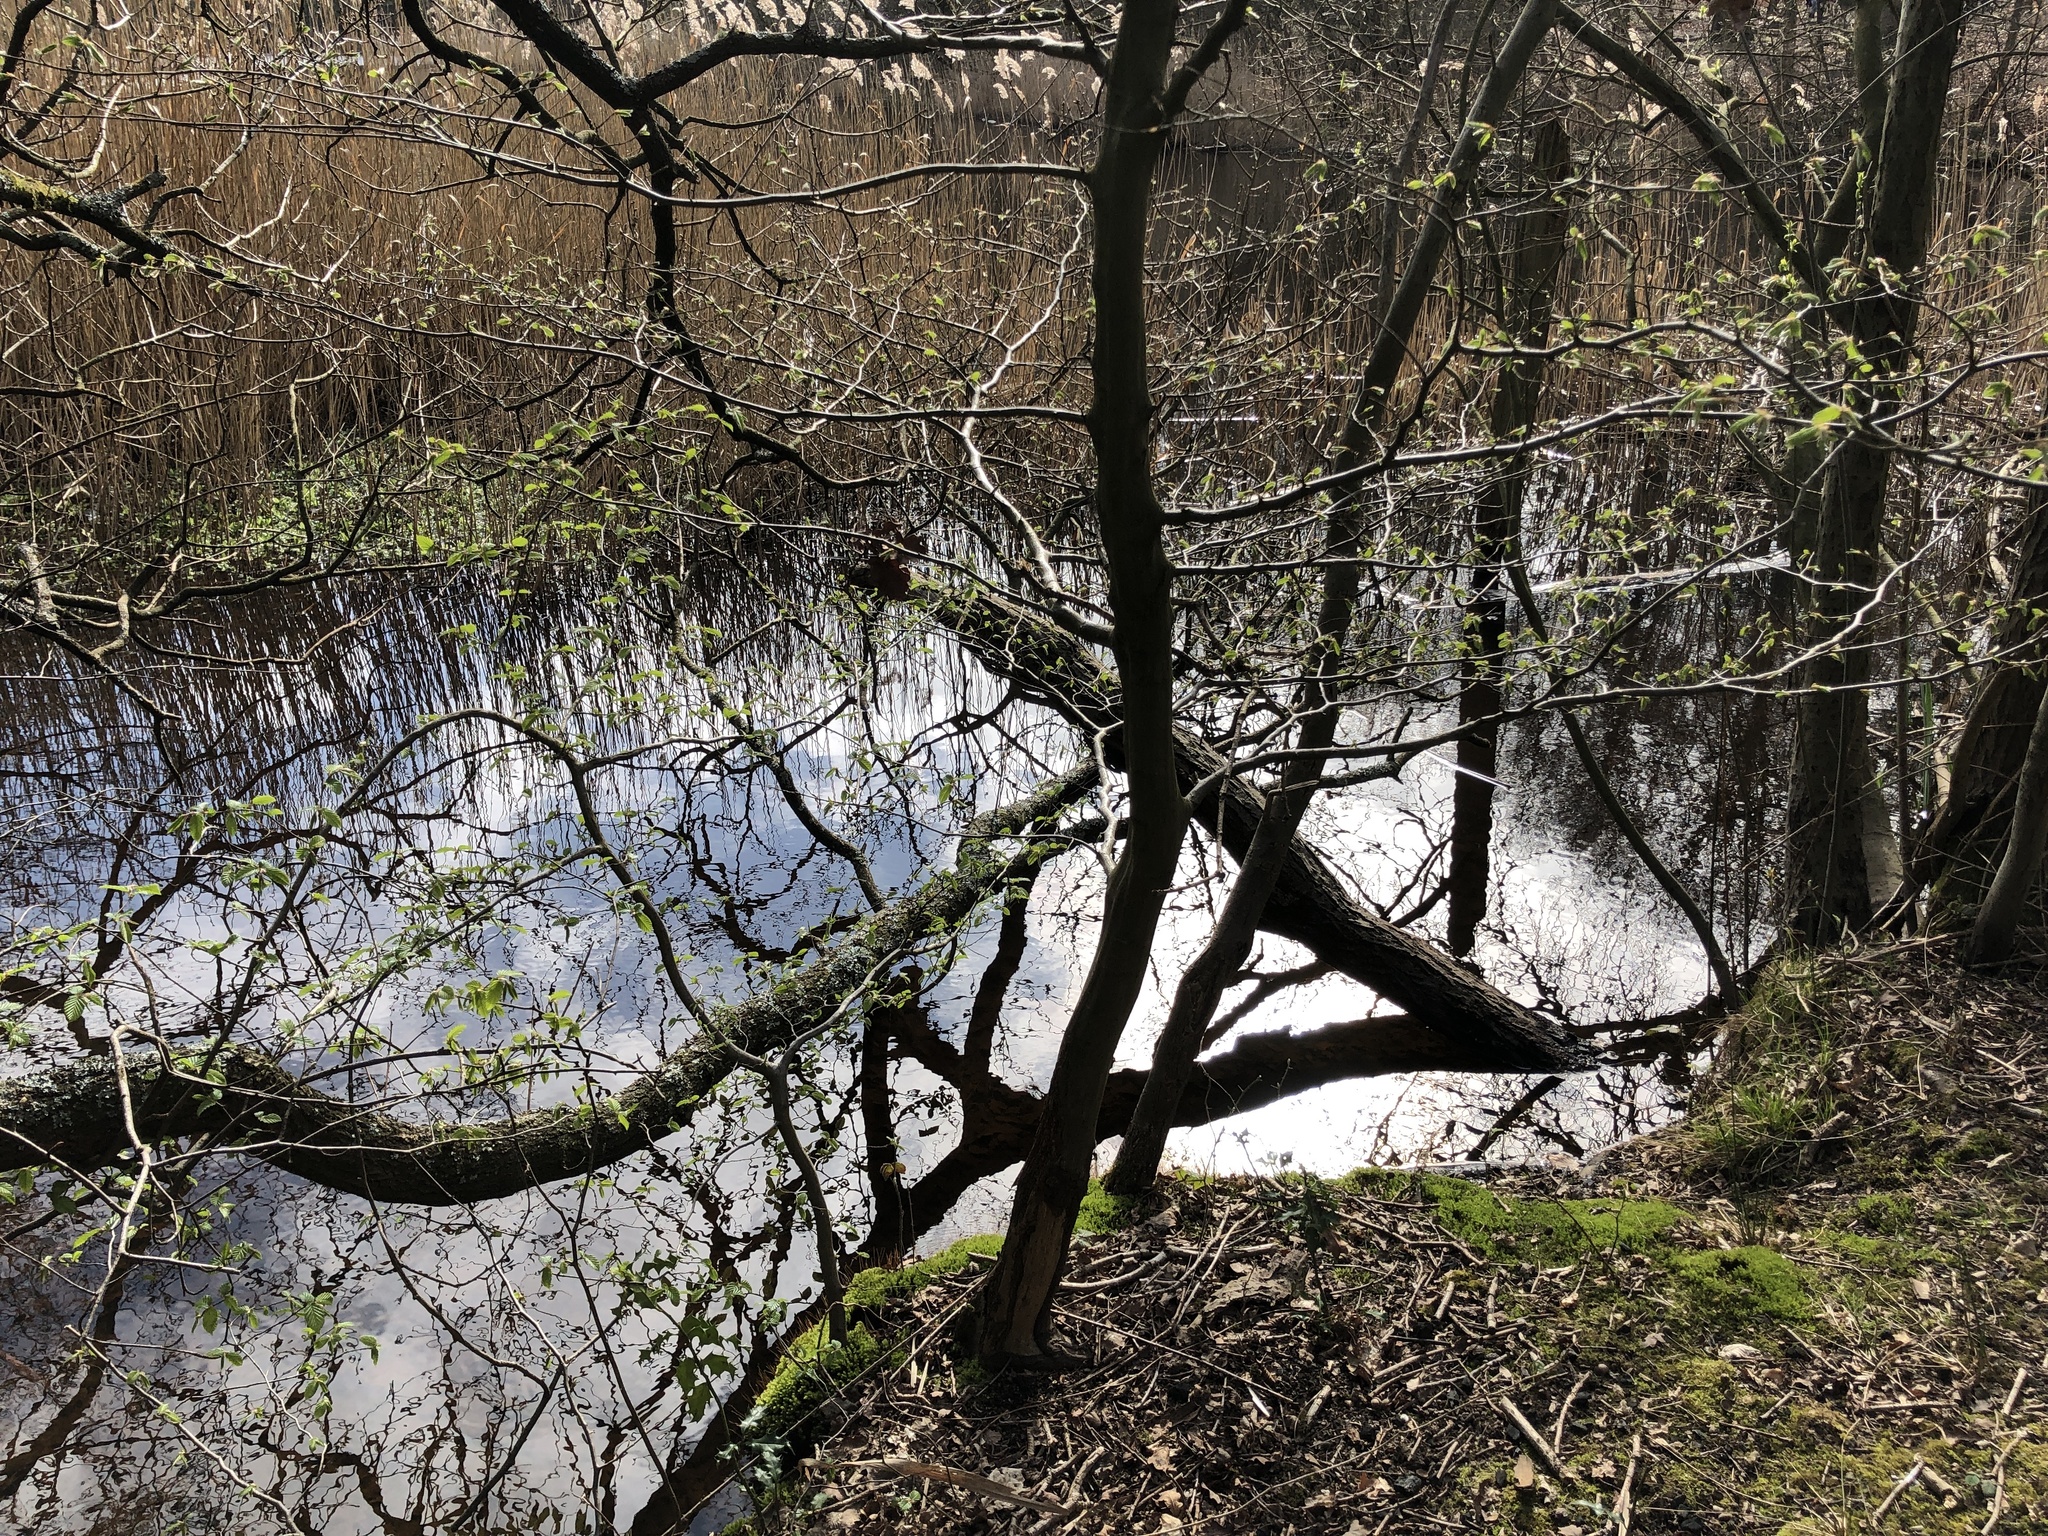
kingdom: Plantae
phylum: Bryophyta
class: Bryopsida
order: Bryales
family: Mniaceae
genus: Mnium
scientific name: Mnium hornum
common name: Swan's-neck leafy moss
